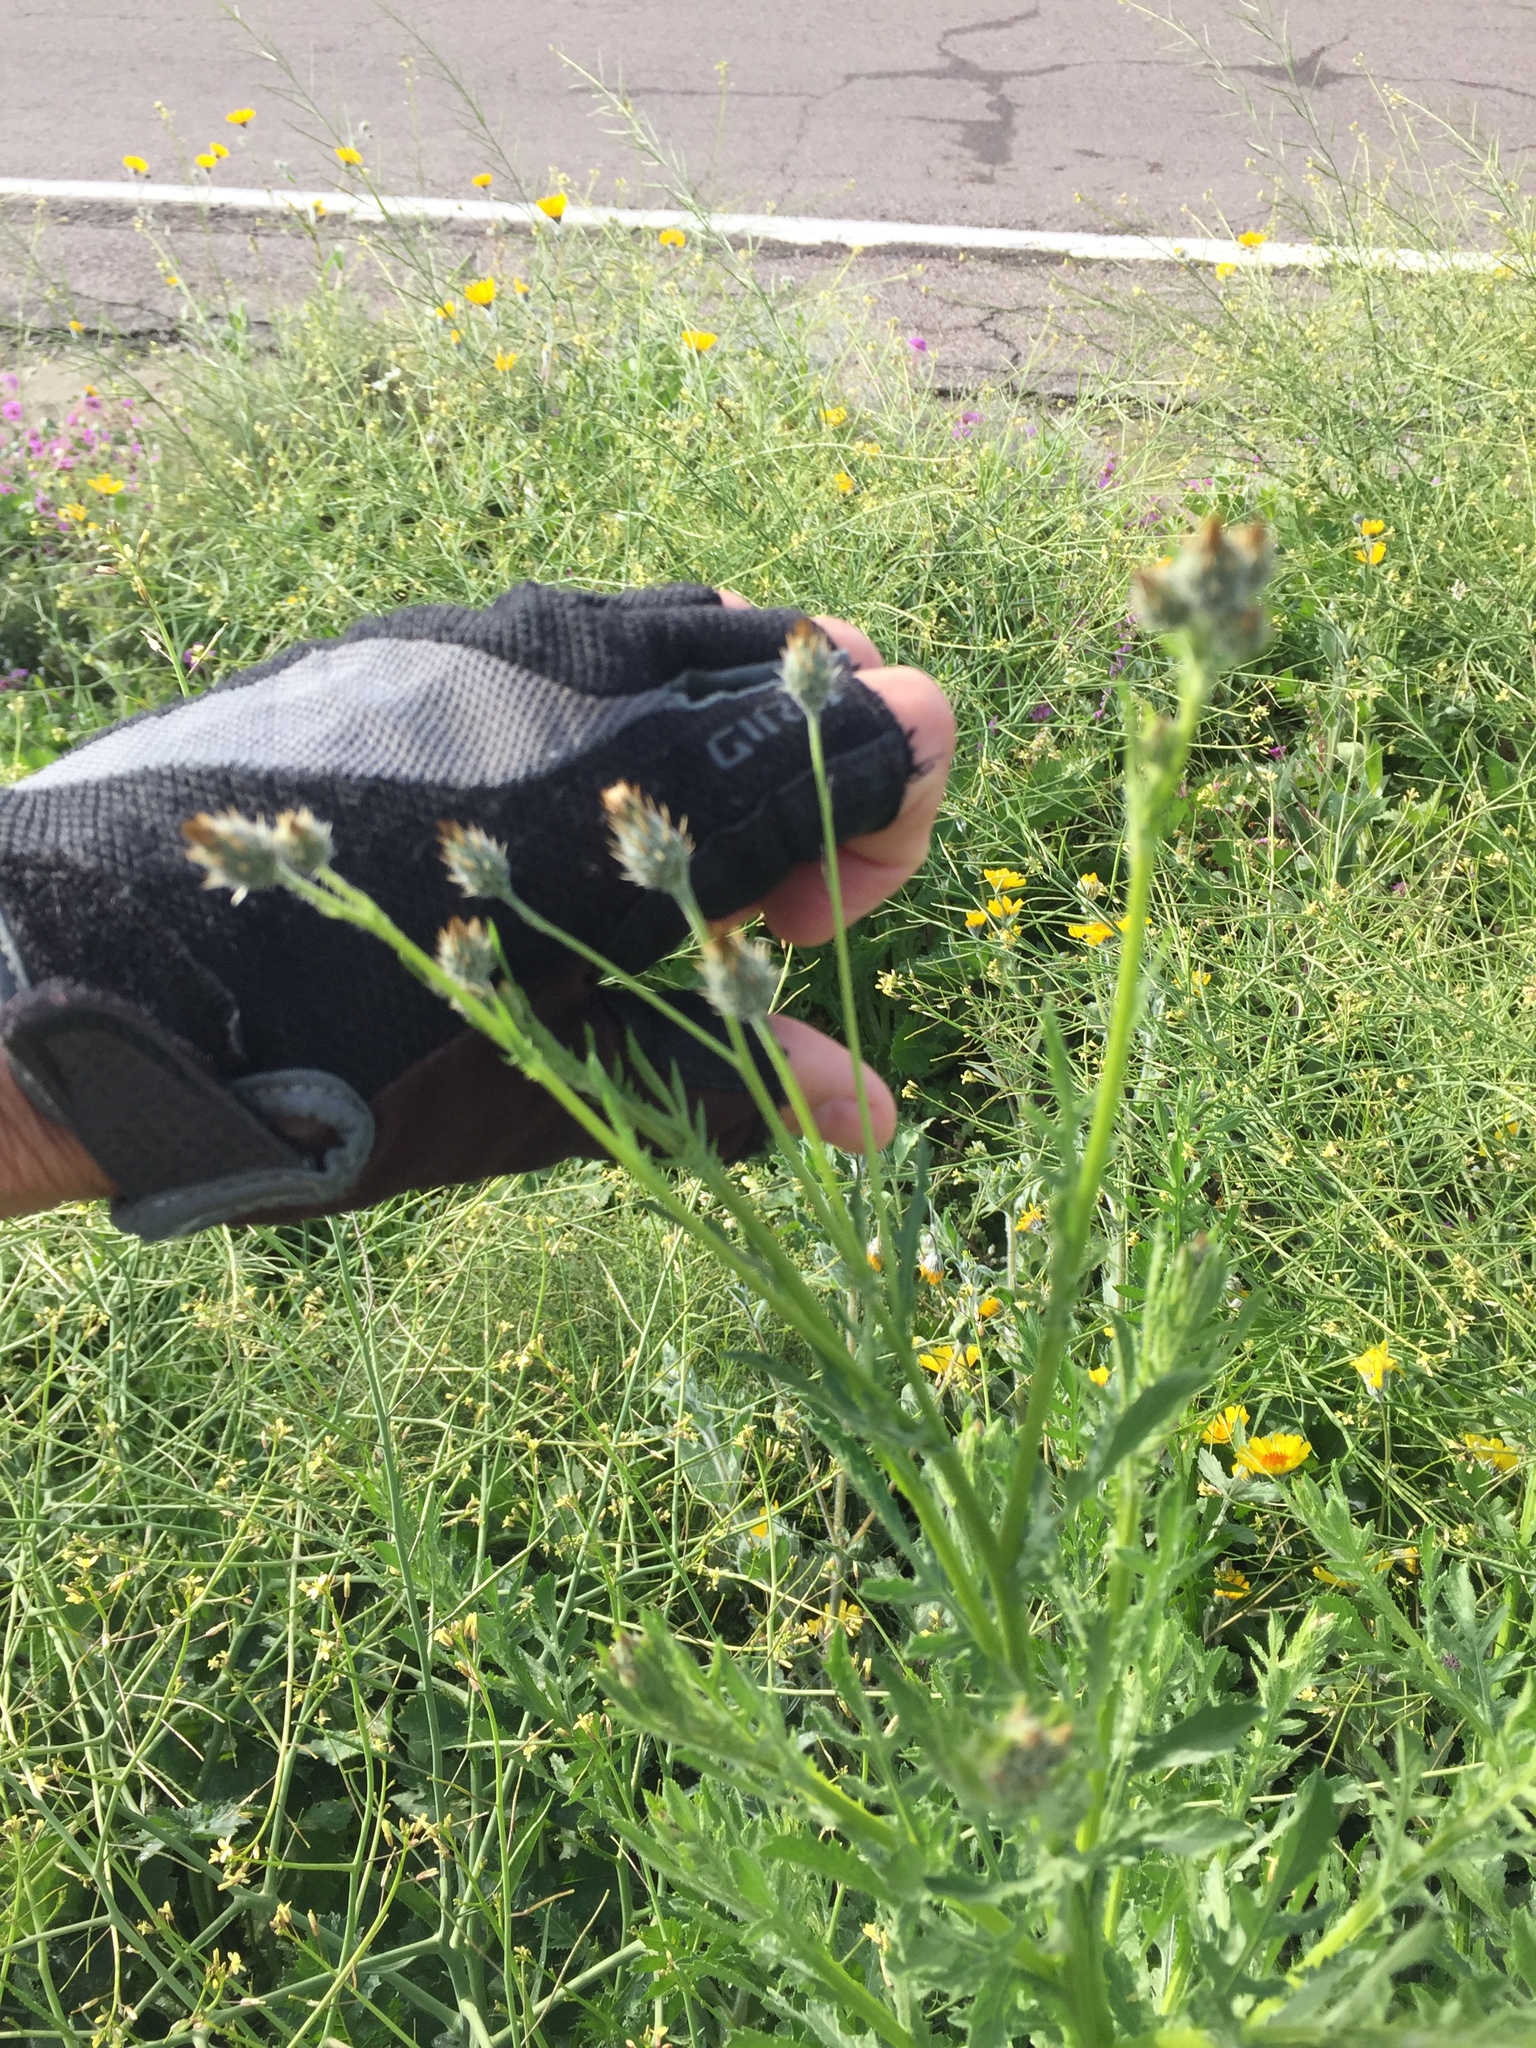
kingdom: Plantae
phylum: Tracheophyta
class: Magnoliopsida
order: Asterales
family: Asteraceae
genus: Volutaria
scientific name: Volutaria tubuliflora
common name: Desert knapweed
